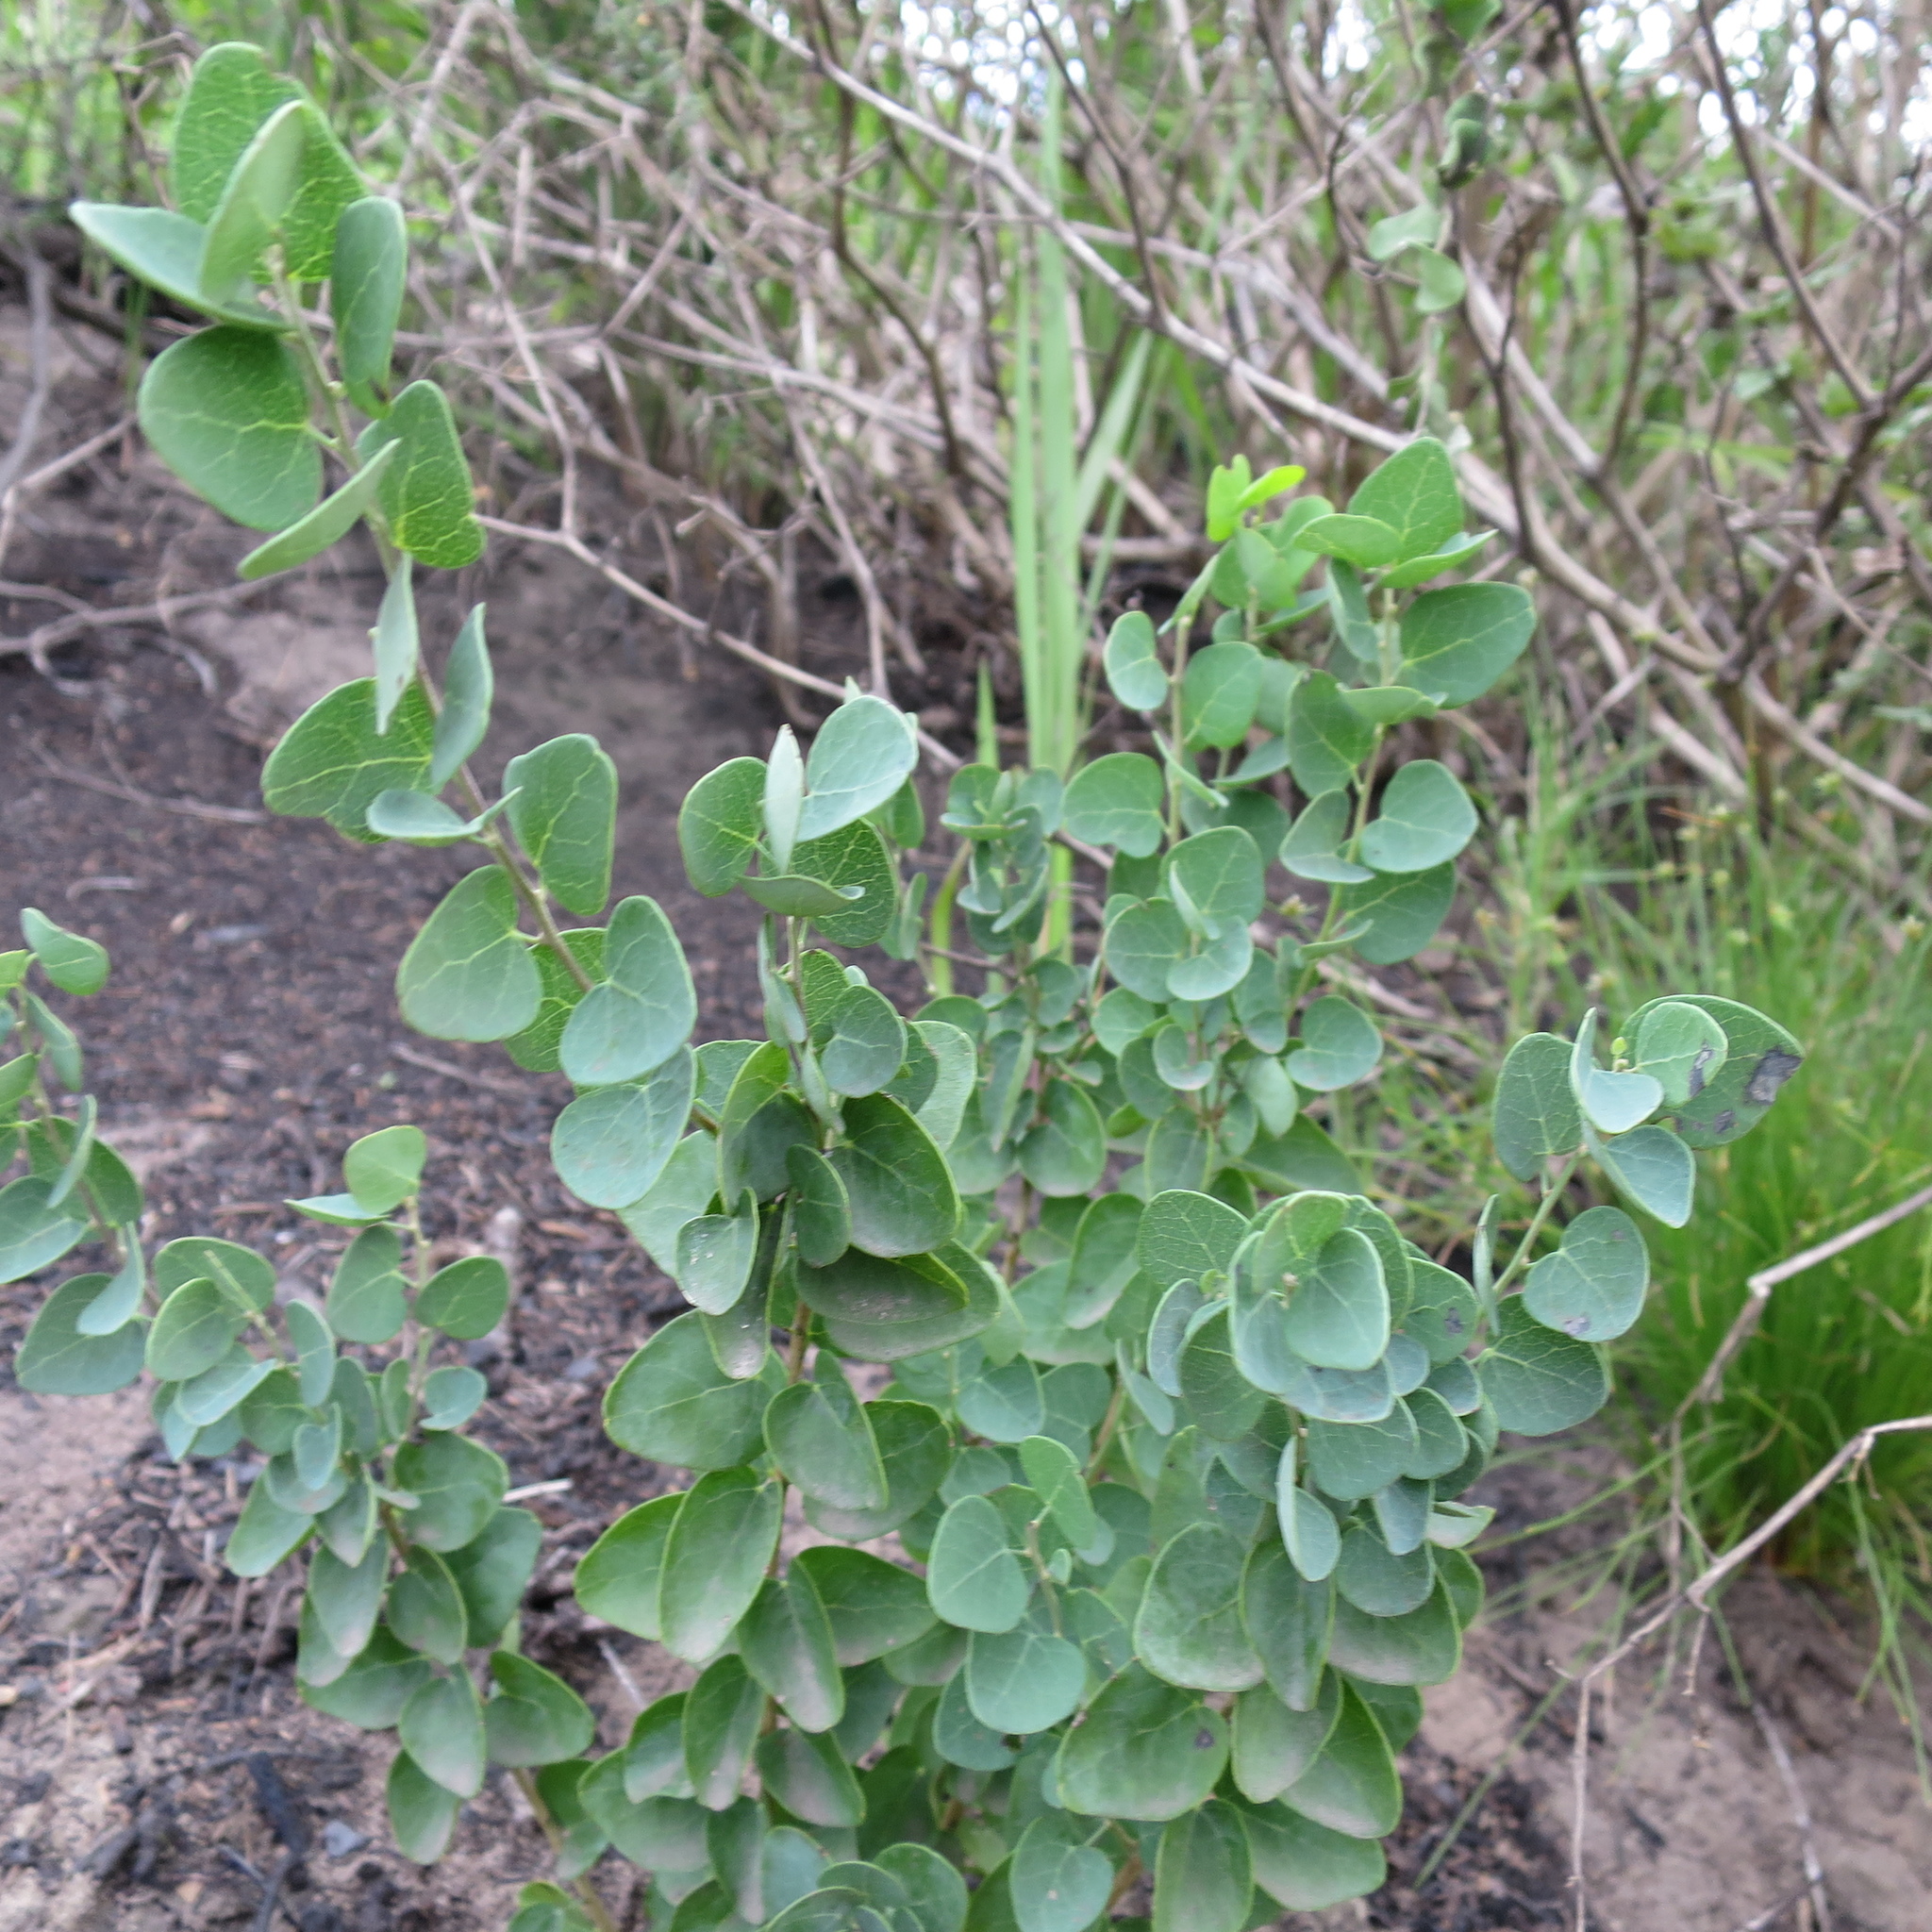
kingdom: Plantae
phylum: Tracheophyta
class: Magnoliopsida
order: Ranunculales
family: Menispermaceae
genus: Cissampelos
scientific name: Cissampelos capensis
